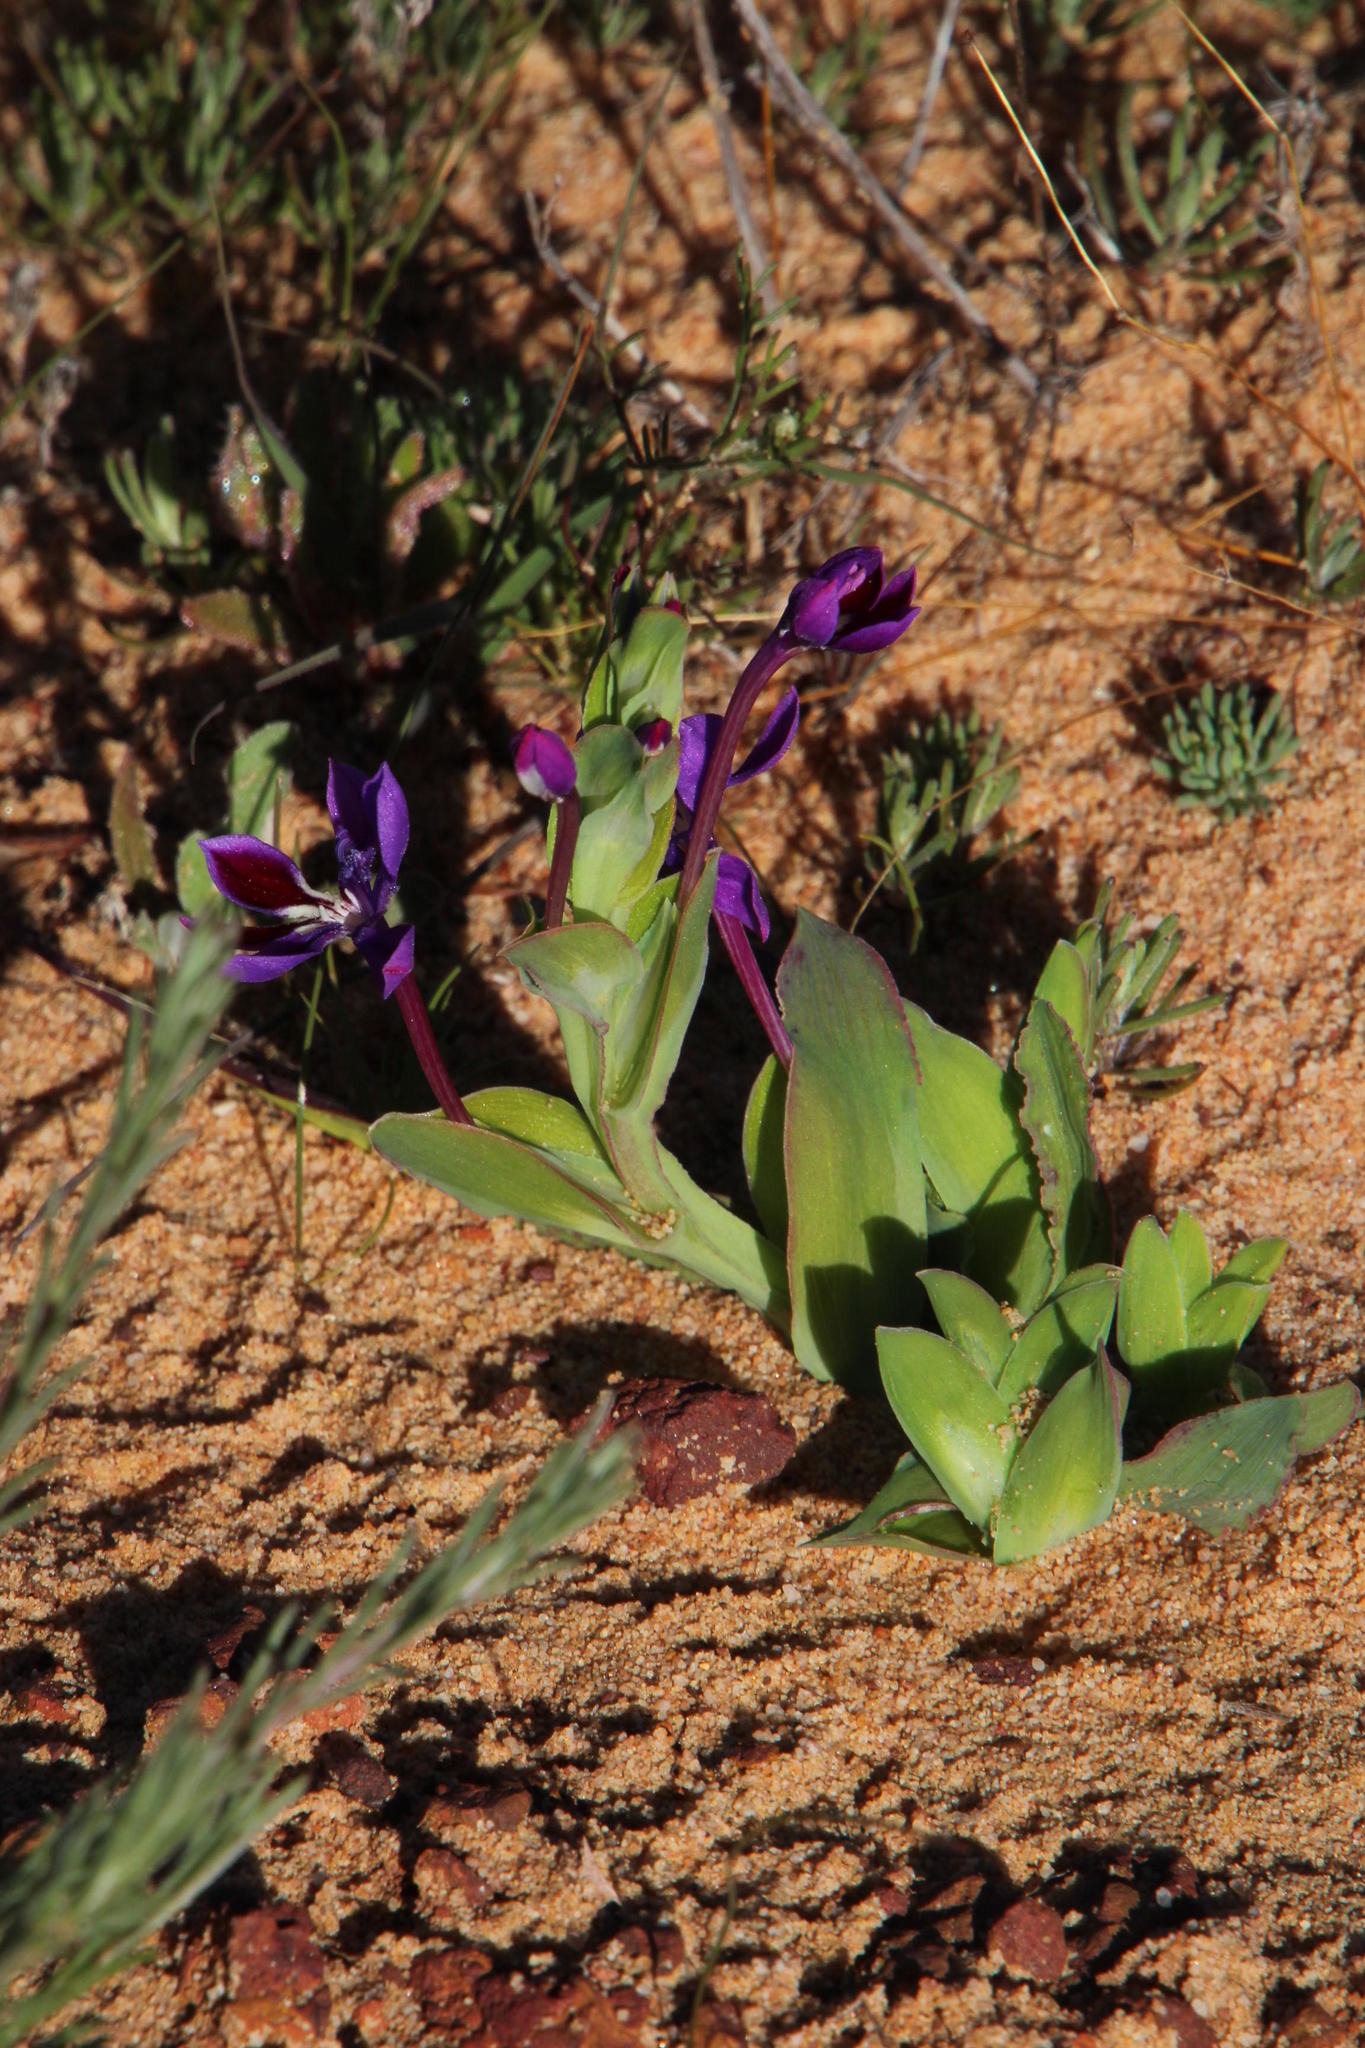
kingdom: Plantae
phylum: Tracheophyta
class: Liliopsida
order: Asparagales
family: Iridaceae
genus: Lapeirousia
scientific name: Lapeirousia jacquinii
